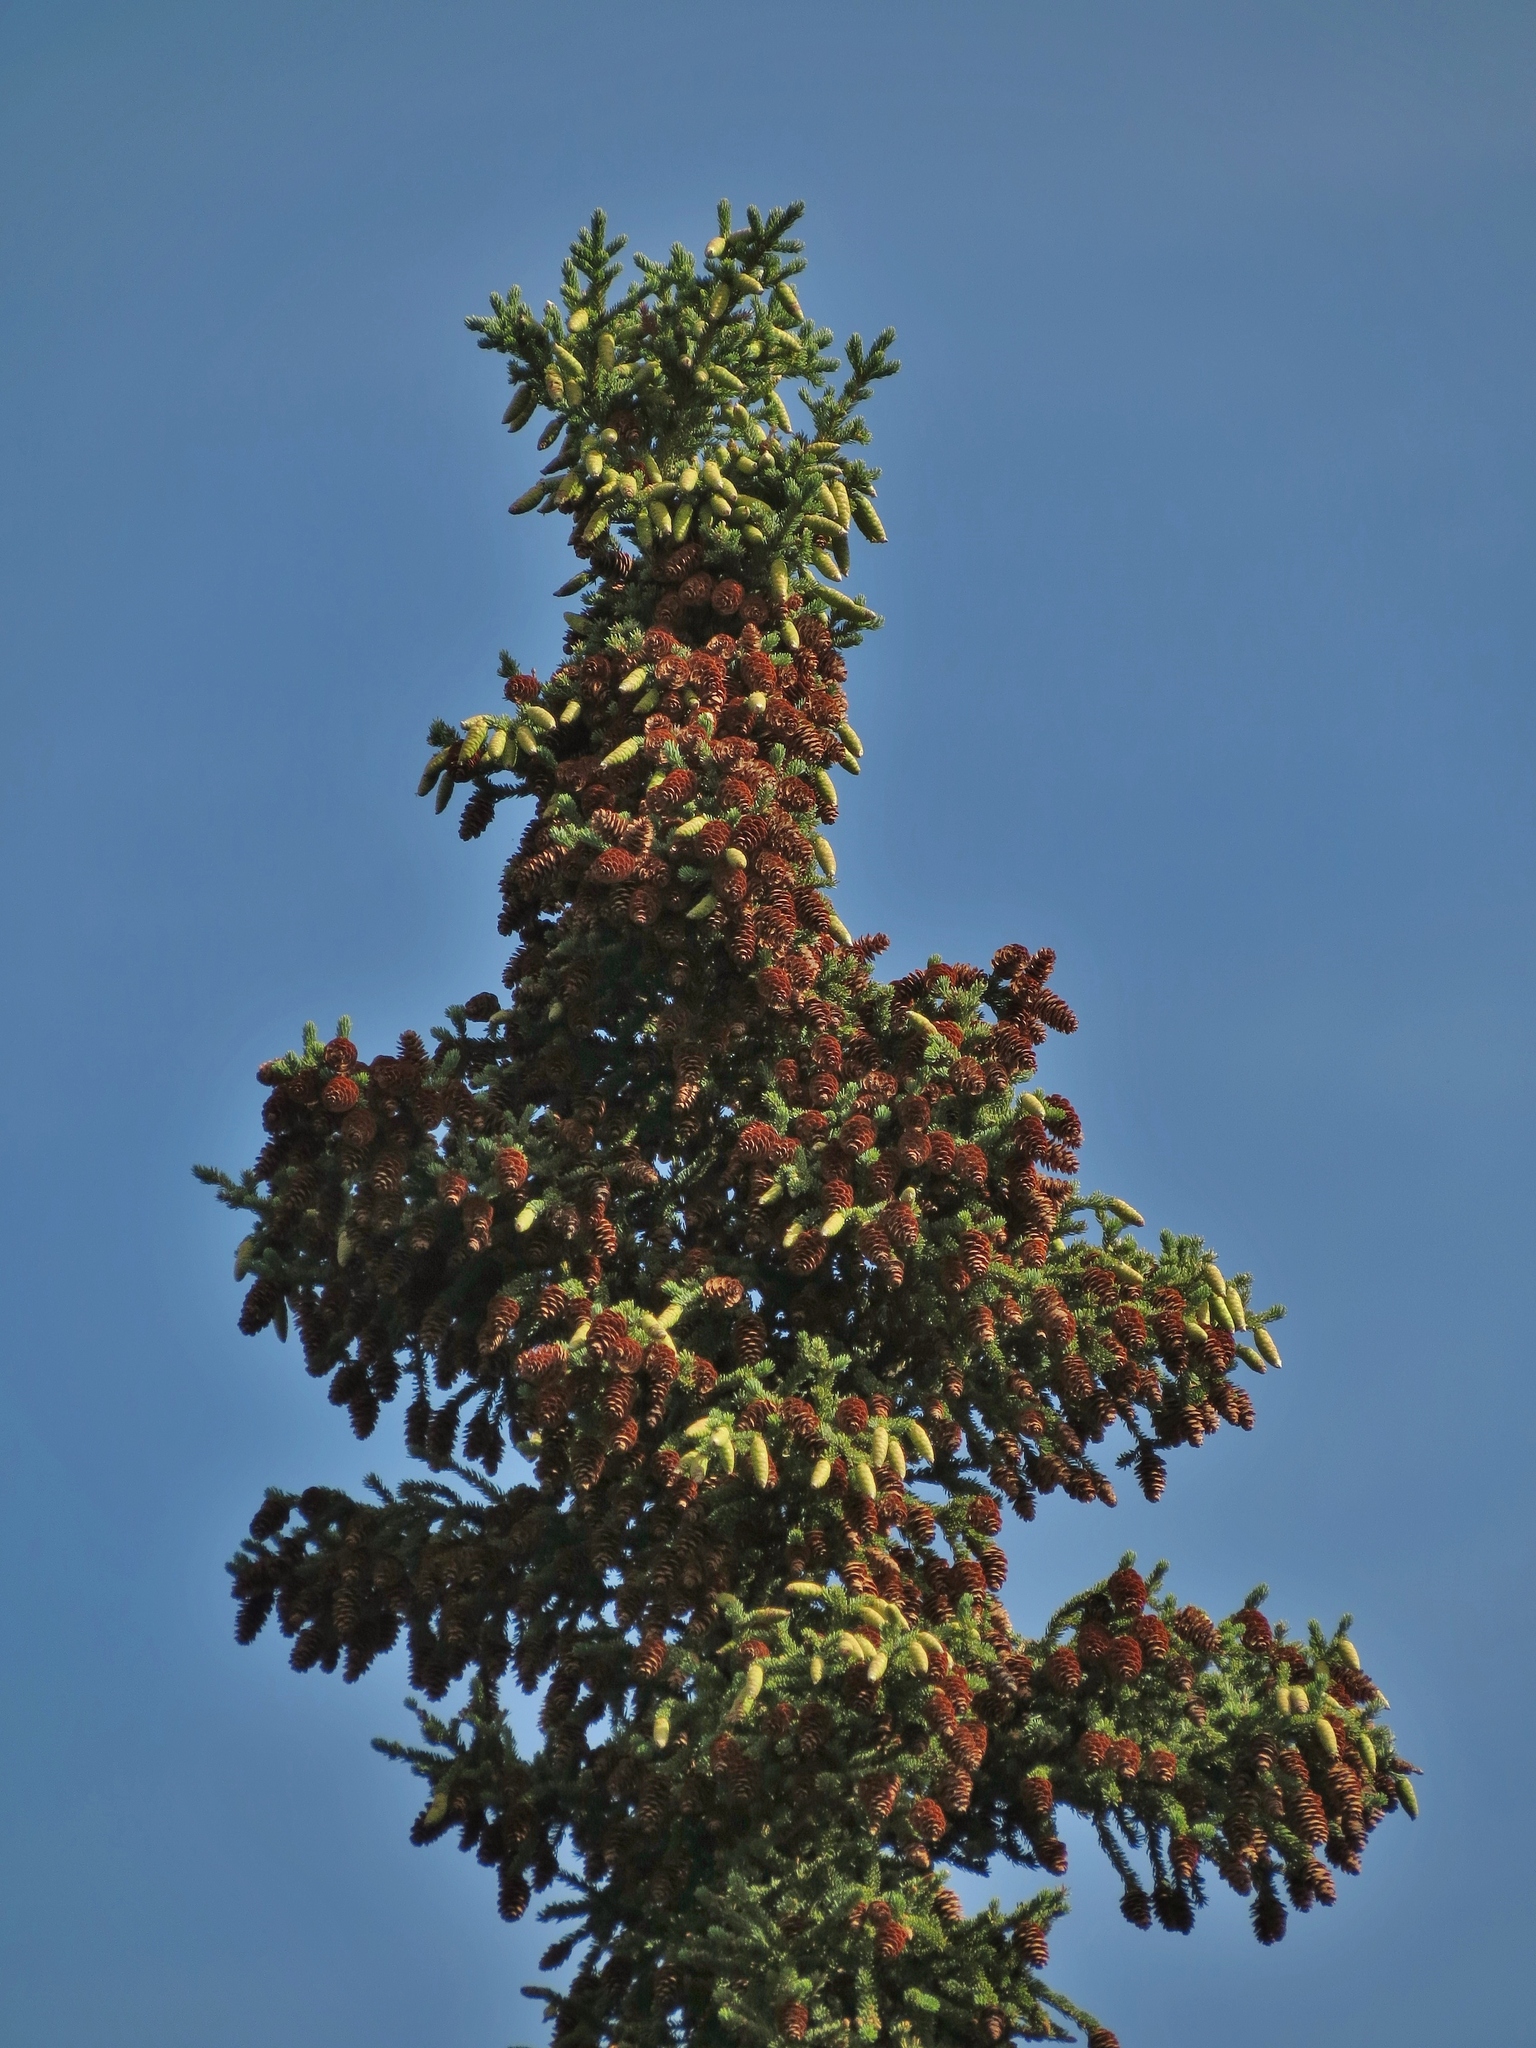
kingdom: Plantae
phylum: Tracheophyta
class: Pinopsida
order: Pinales
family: Pinaceae
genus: Picea
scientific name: Picea glauca
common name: White spruce
